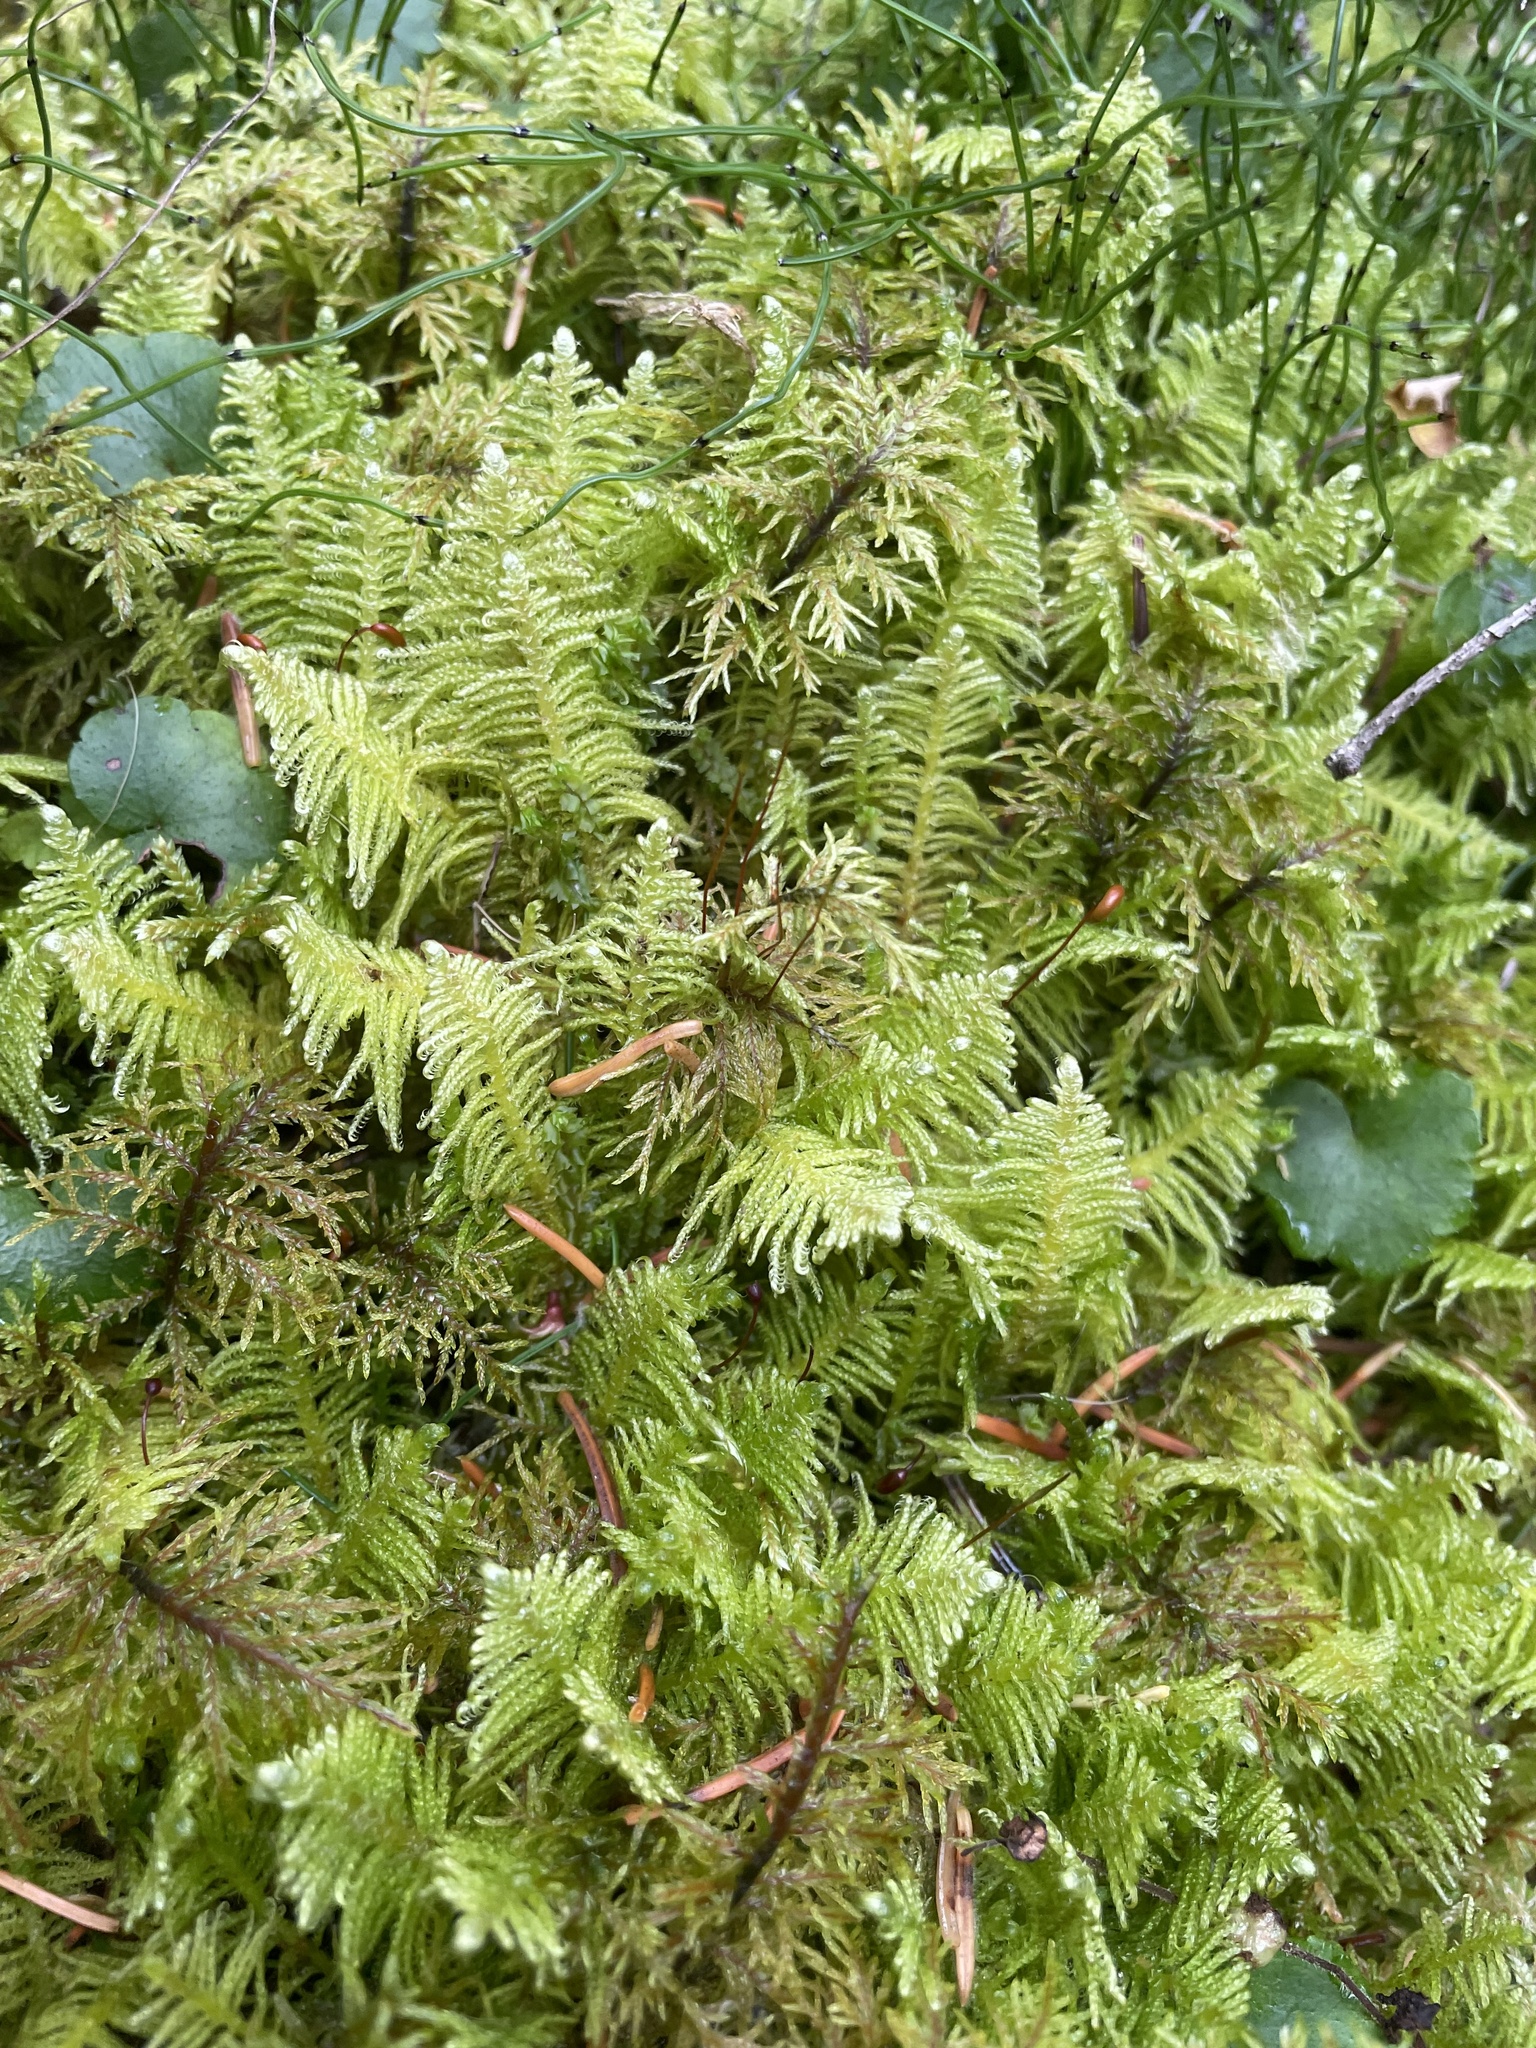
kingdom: Plantae
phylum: Bryophyta
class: Bryopsida
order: Hypnales
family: Pylaisiaceae
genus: Ptilium
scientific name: Ptilium crista-castrensis
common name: Knight's plume moss
